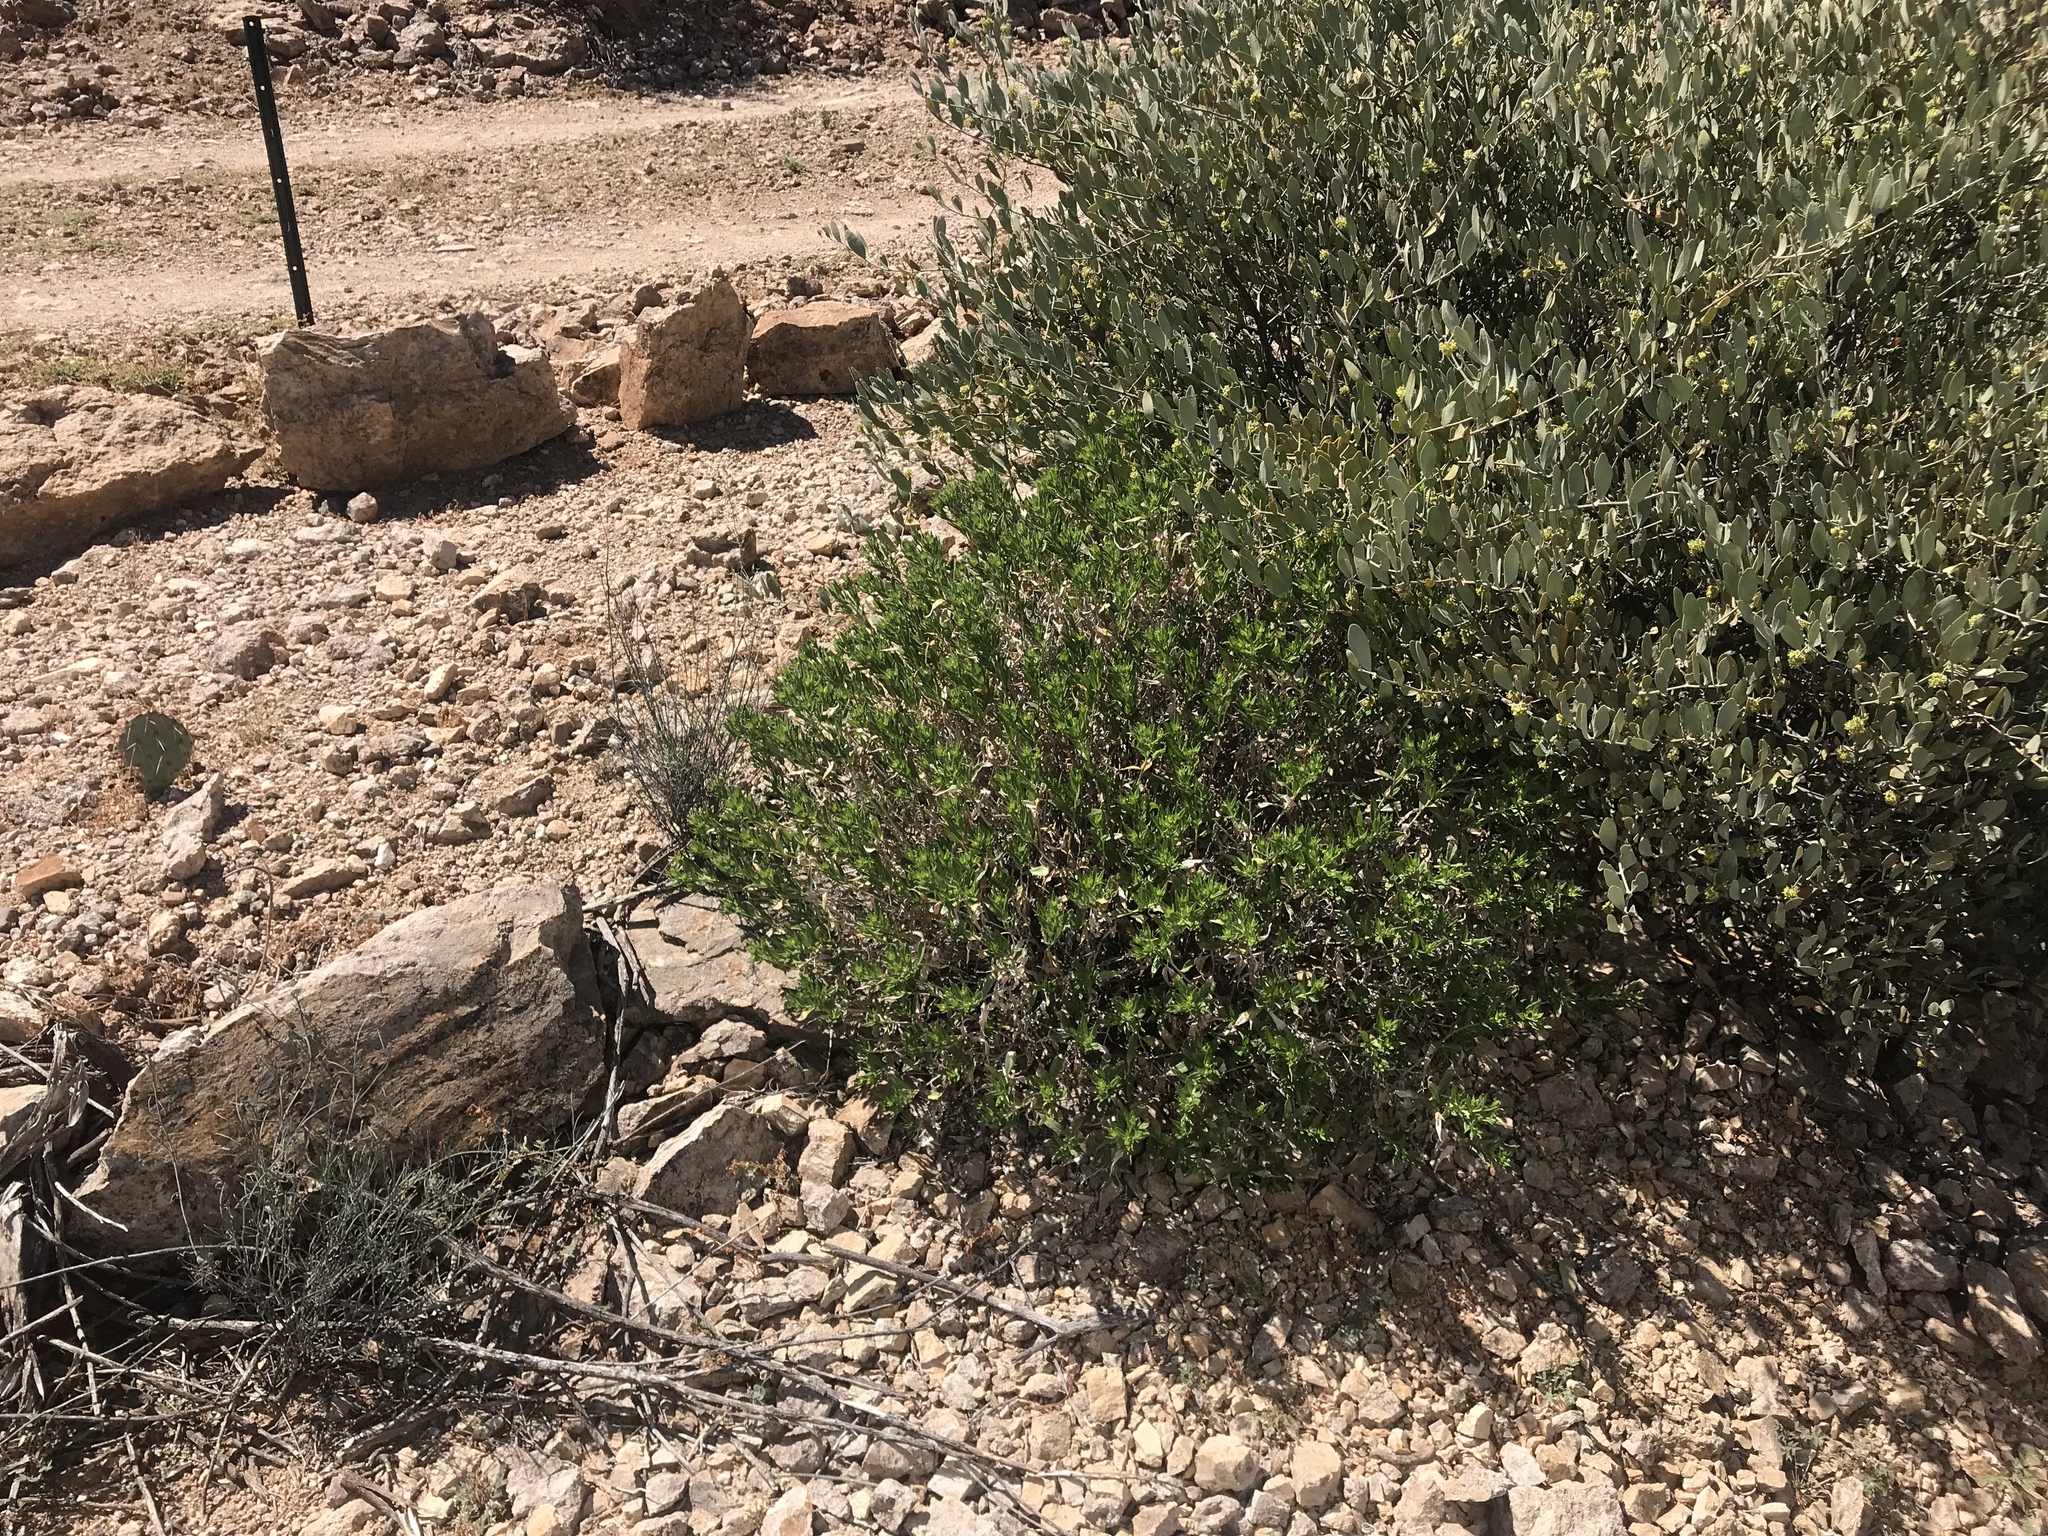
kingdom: Plantae
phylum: Tracheophyta
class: Magnoliopsida
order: Asterales
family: Asteraceae
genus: Trixis
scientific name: Trixis californica
